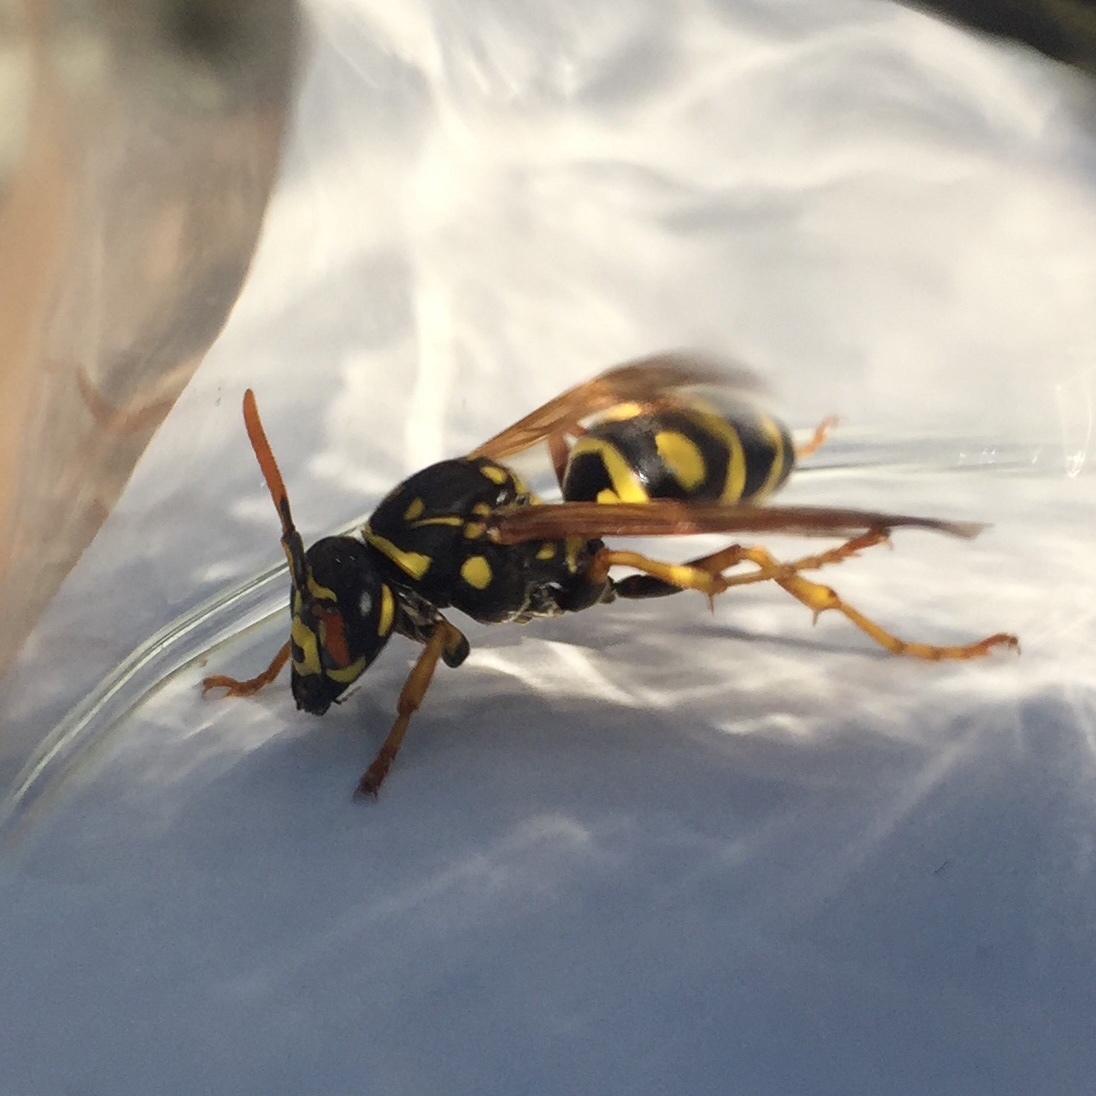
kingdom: Animalia
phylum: Arthropoda
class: Insecta
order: Hymenoptera
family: Eumenidae
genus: Polistes
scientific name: Polistes dominula
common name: Paper wasp
